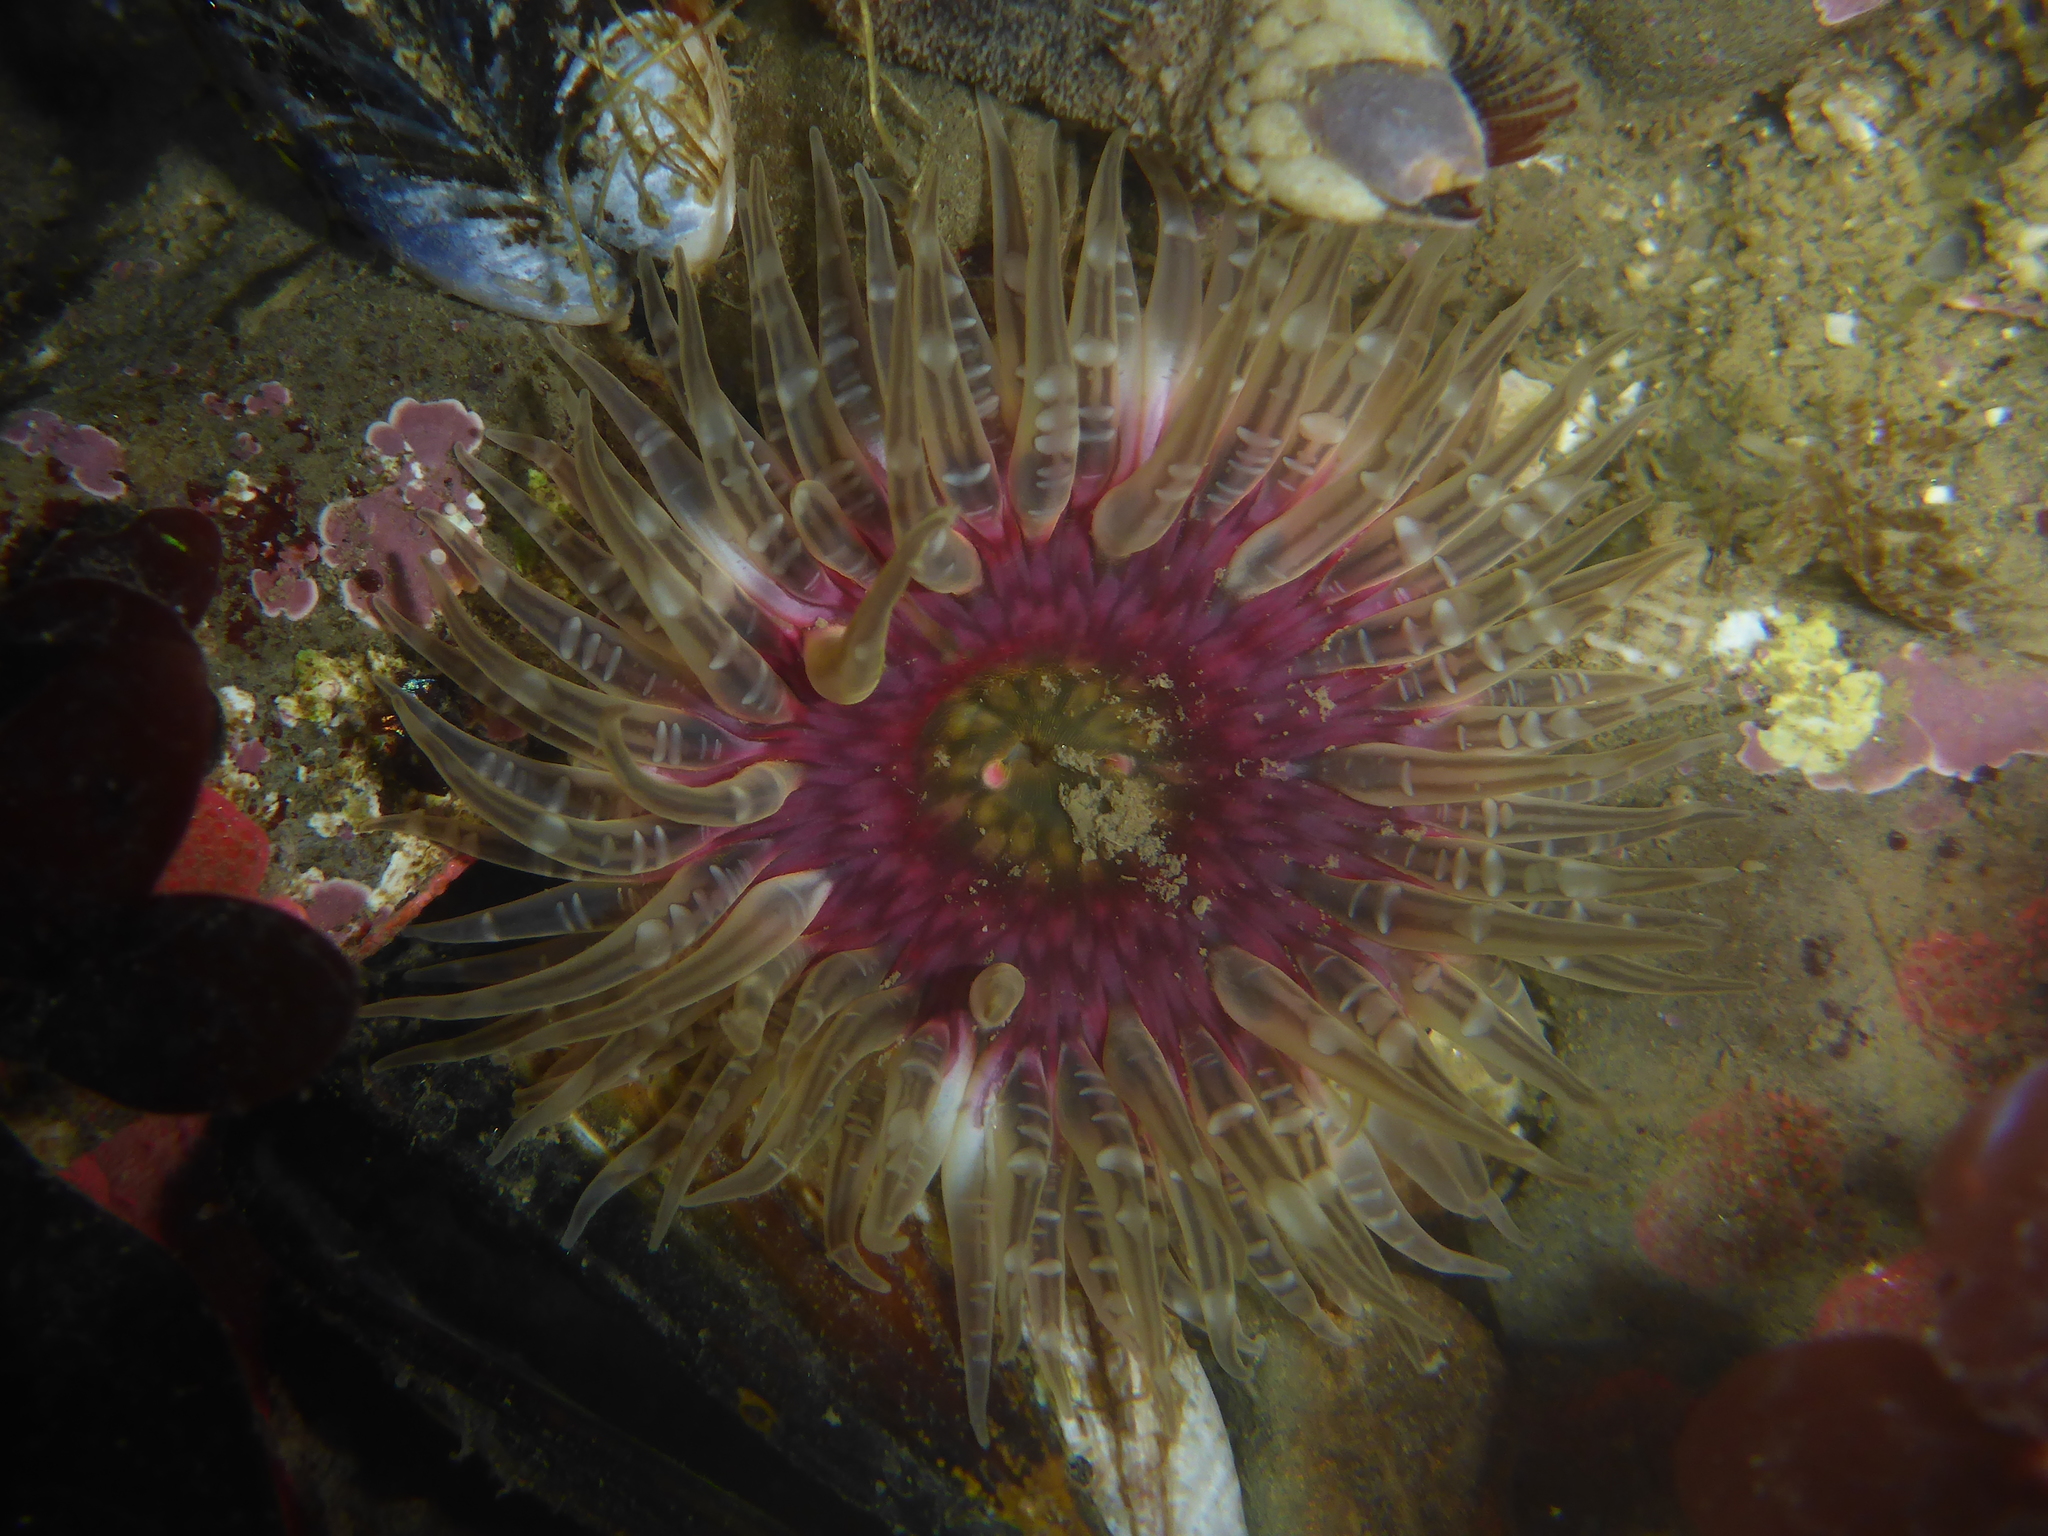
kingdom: Animalia
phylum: Cnidaria
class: Anthozoa
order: Actiniaria
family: Actiniidae
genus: Anthopleura
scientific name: Anthopleura artemisia
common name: Buried sea anemone
